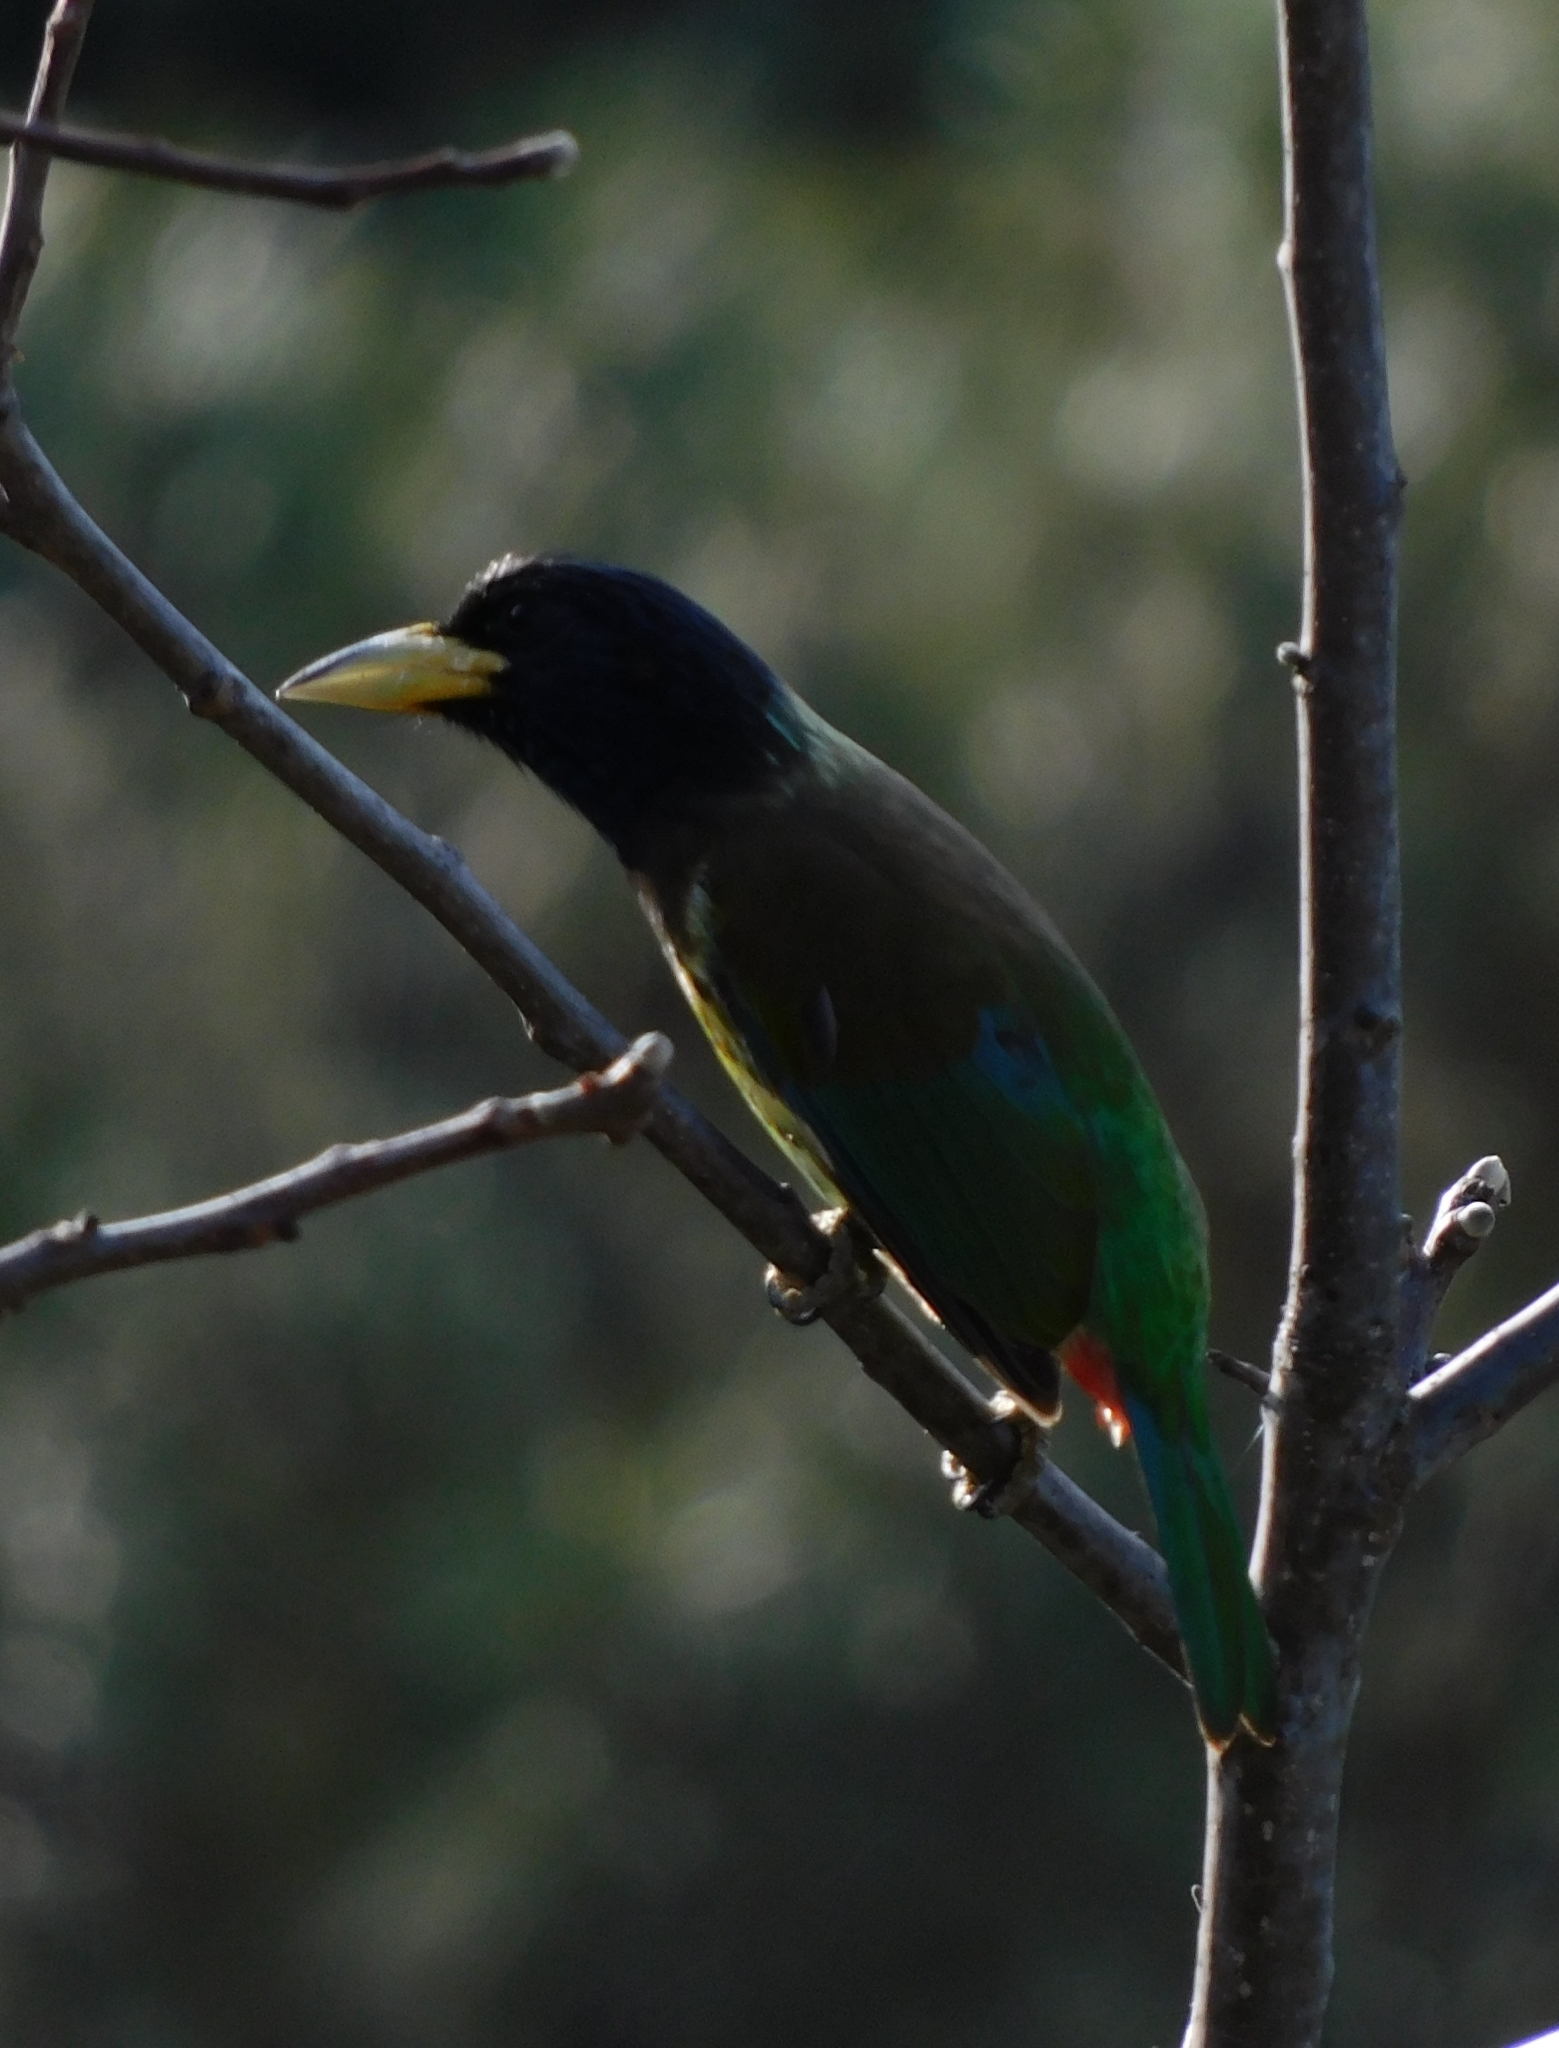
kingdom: Animalia
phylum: Chordata
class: Aves
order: Piciformes
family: Megalaimidae
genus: Psilopogon
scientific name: Psilopogon virens
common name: Great barbet
